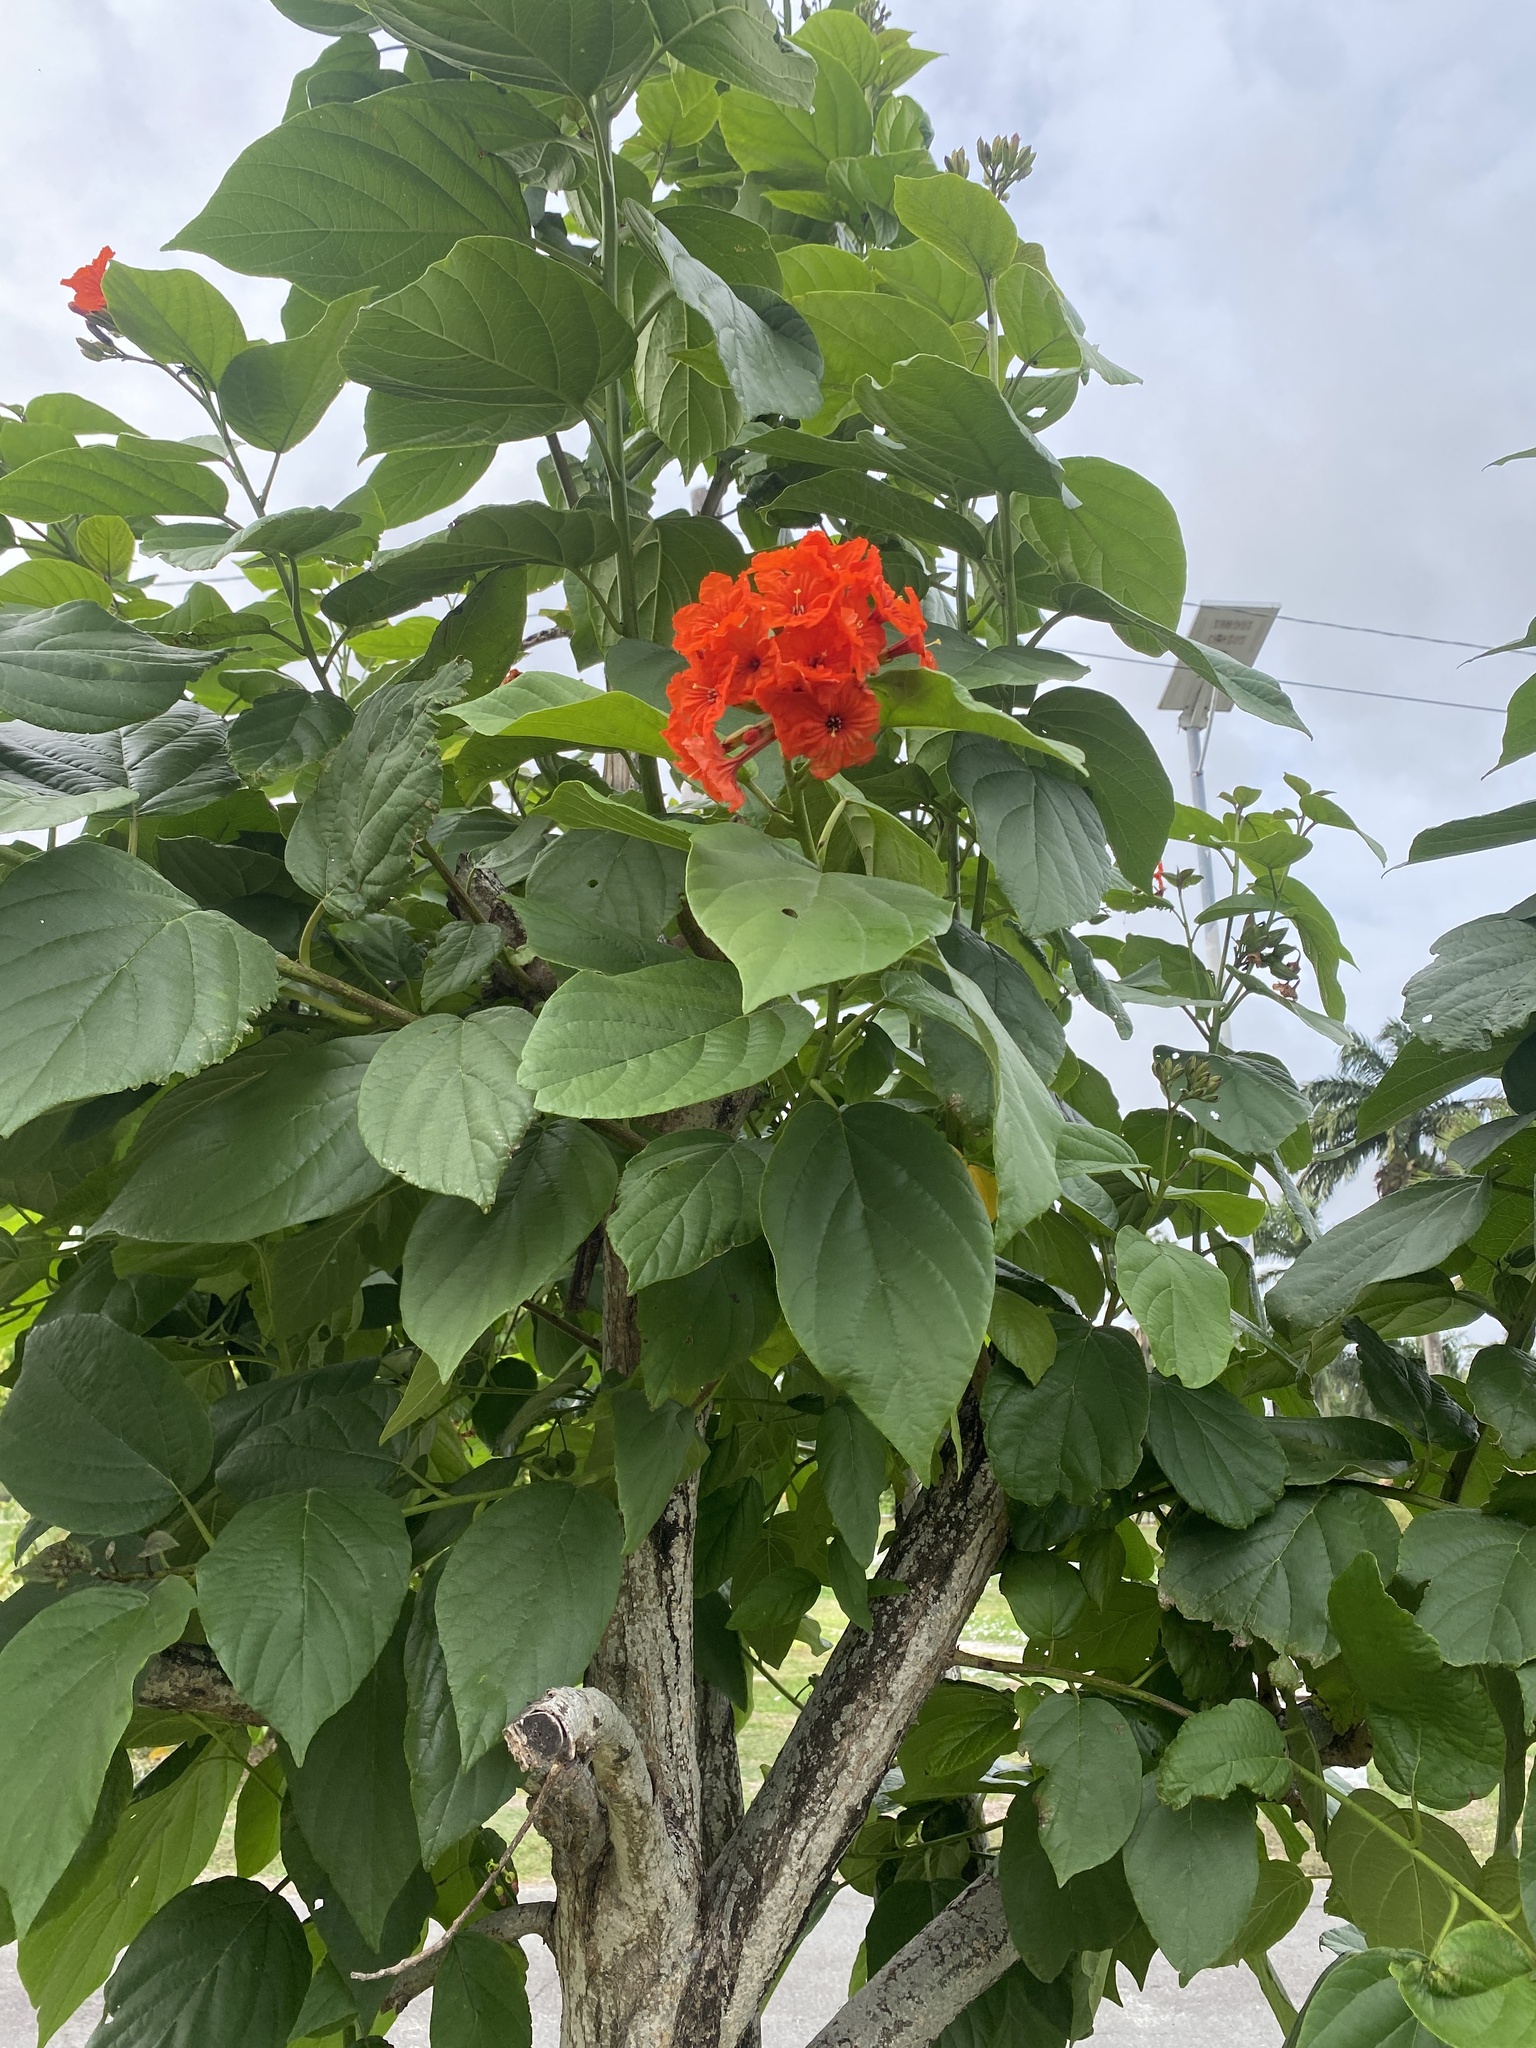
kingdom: Plantae
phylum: Tracheophyta
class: Magnoliopsida
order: Boraginales
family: Cordiaceae
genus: Cordia
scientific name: Cordia sebestena
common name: Largeleaf geigertree
